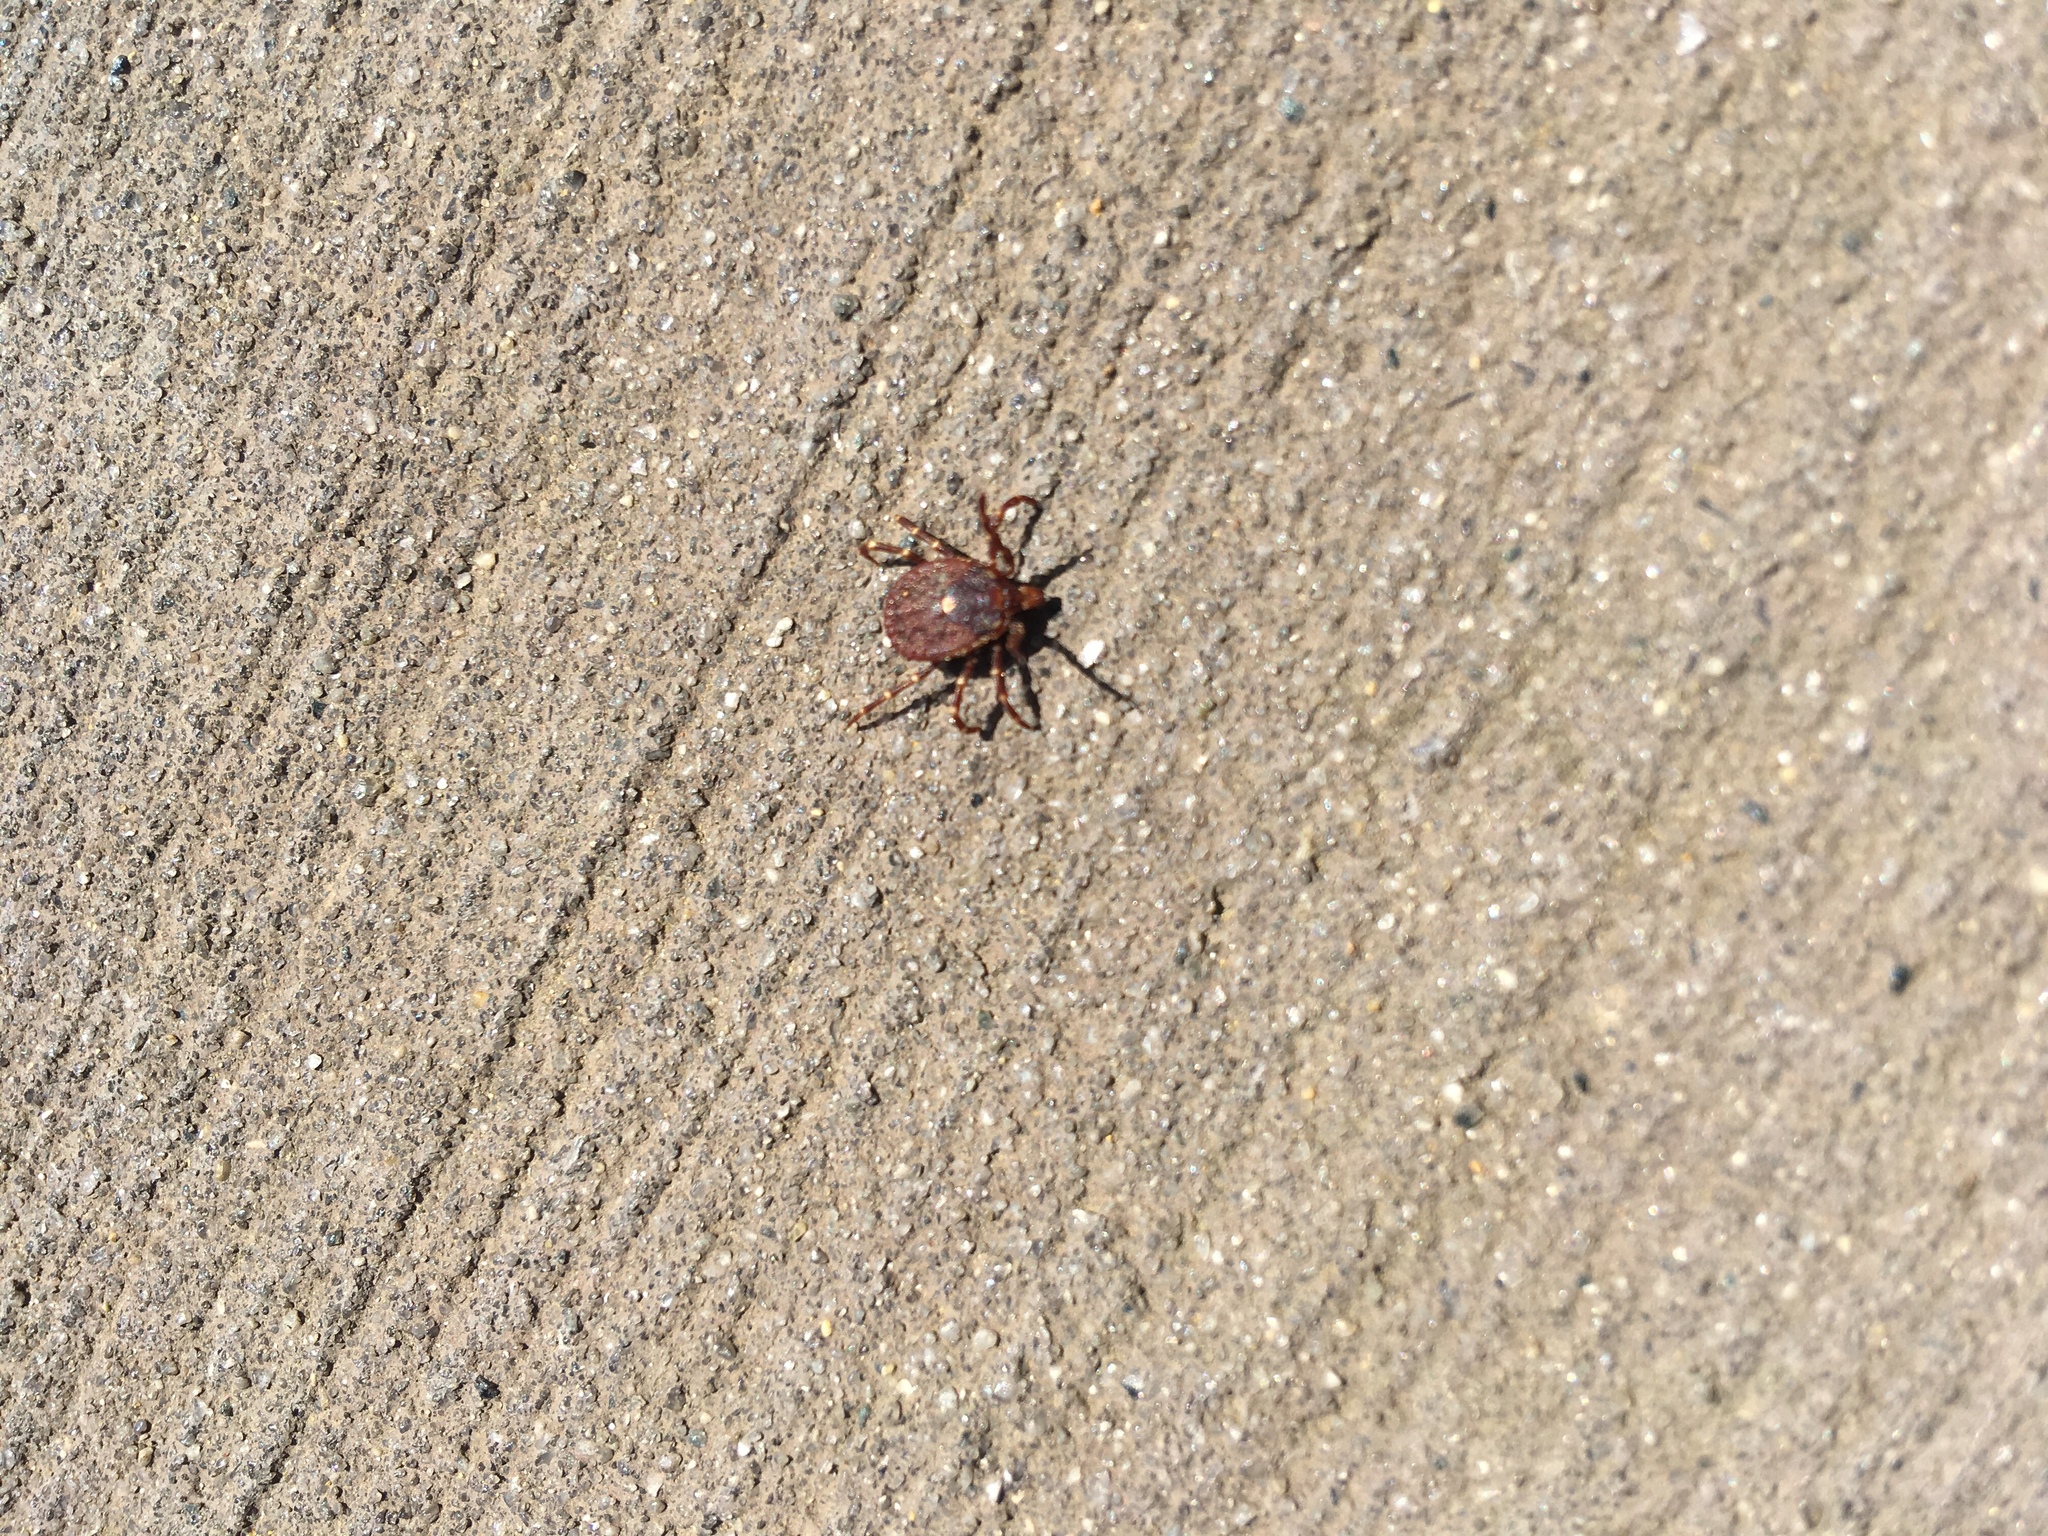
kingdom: Animalia
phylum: Arthropoda
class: Arachnida
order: Ixodida
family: Ixodidae
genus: Amblyomma
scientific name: Amblyomma triguttatum
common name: Kangaroo hard tick
